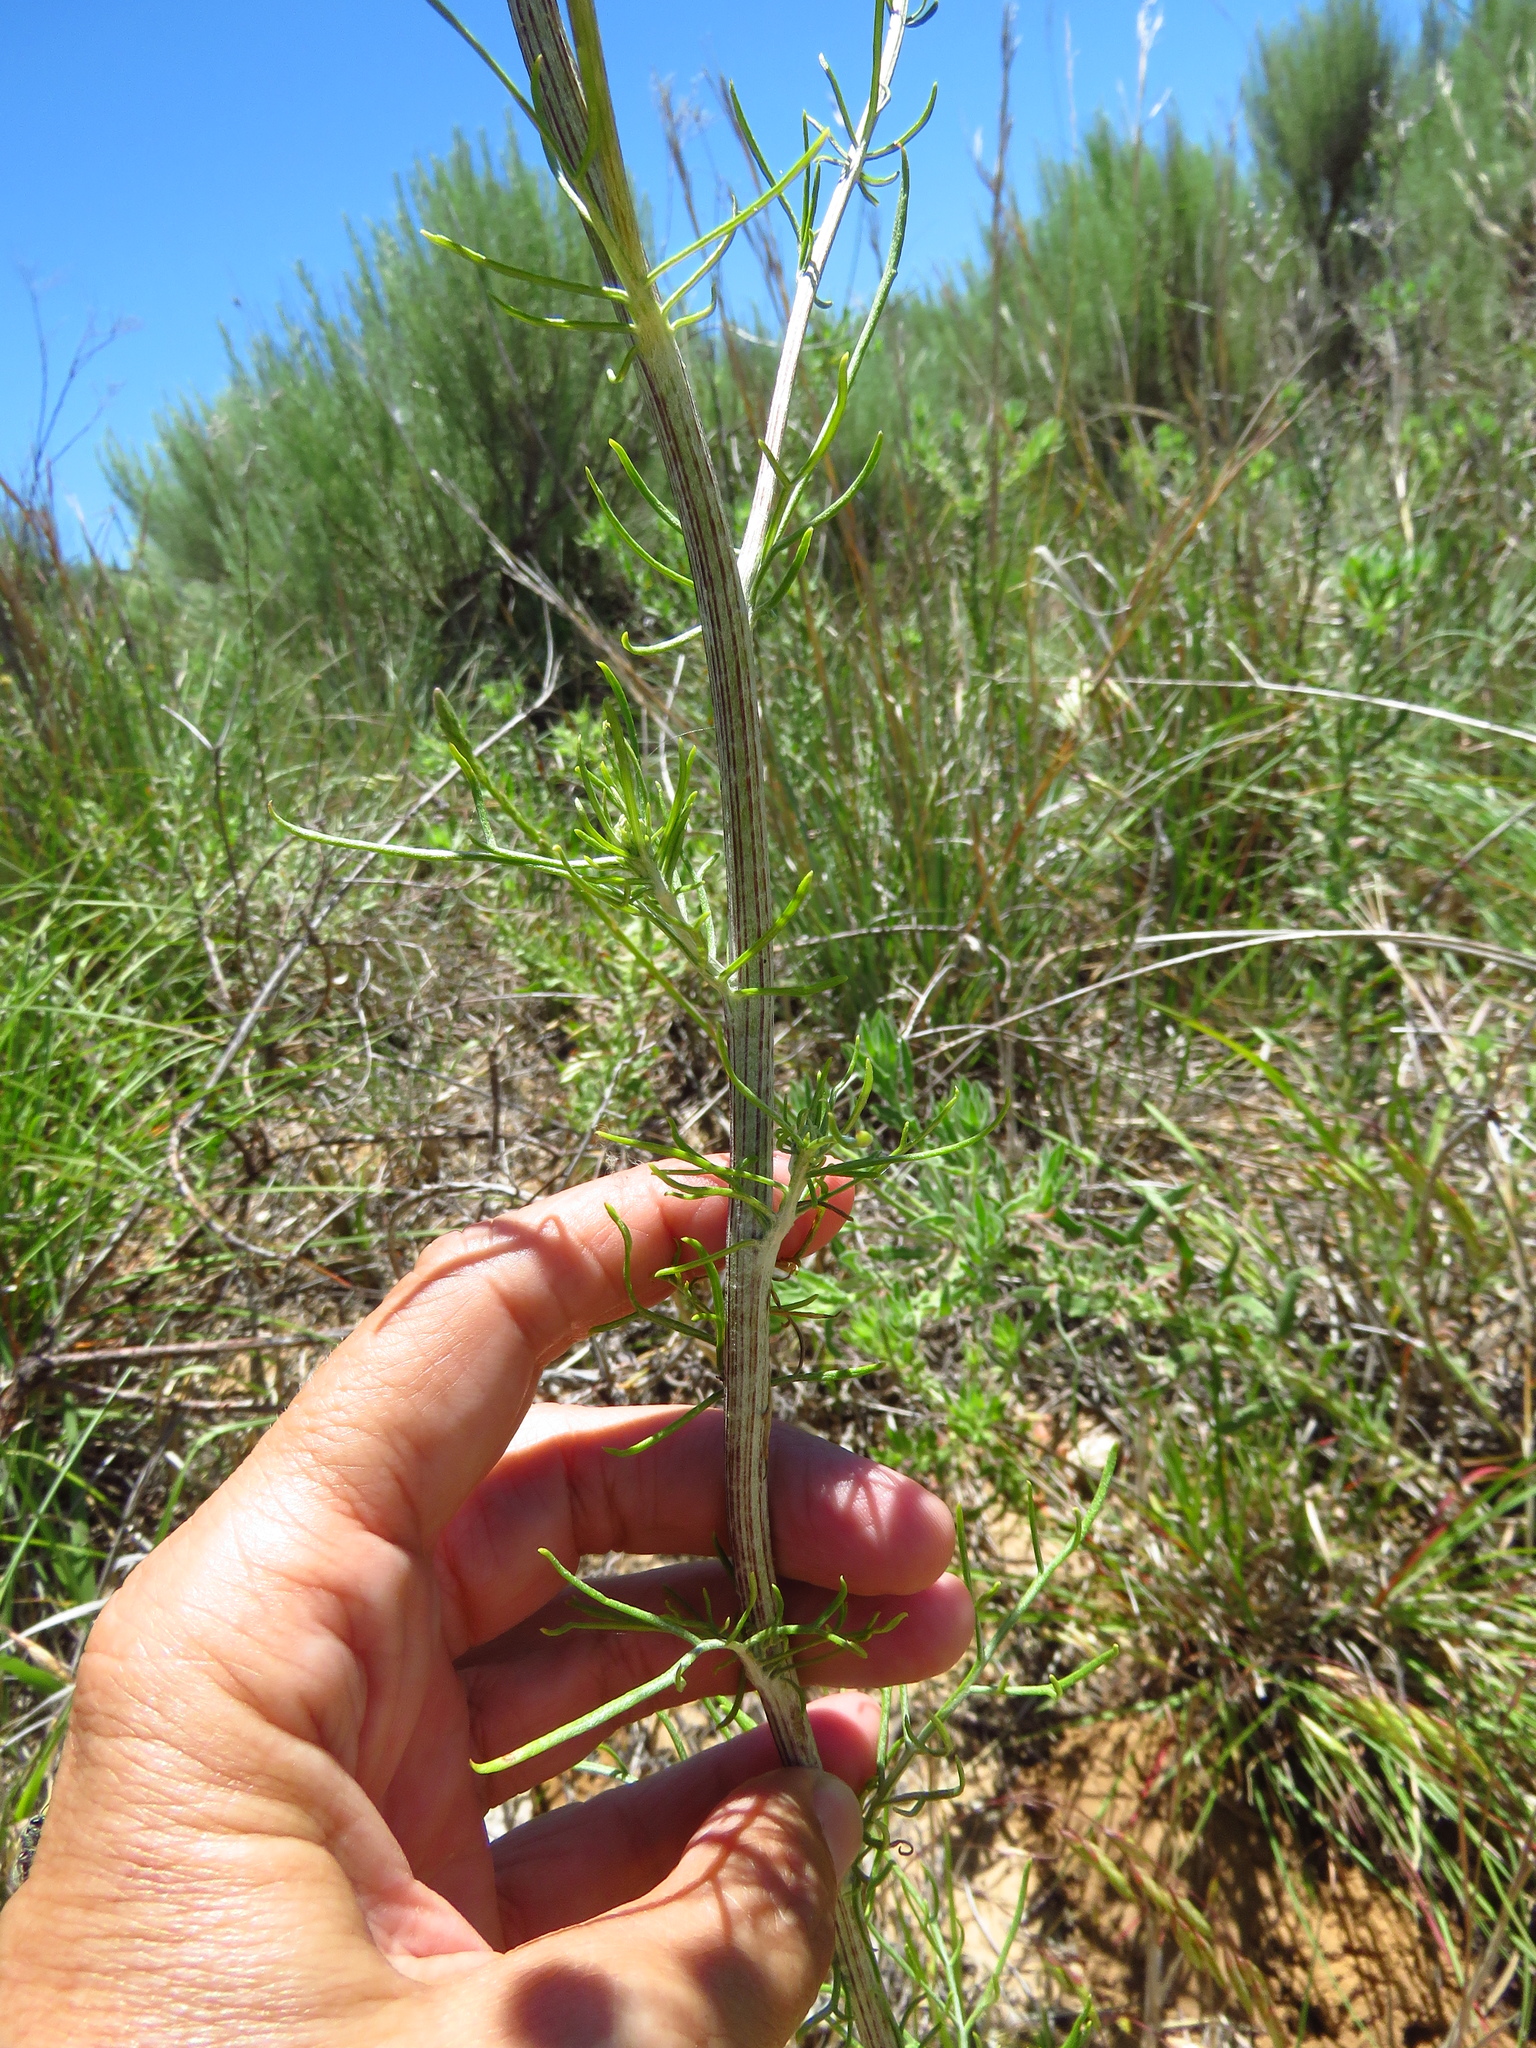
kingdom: Plantae
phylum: Tracheophyta
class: Magnoliopsida
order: Asterales
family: Asteraceae
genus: Hymenopappus
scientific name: Hymenopappus tenuifolius
